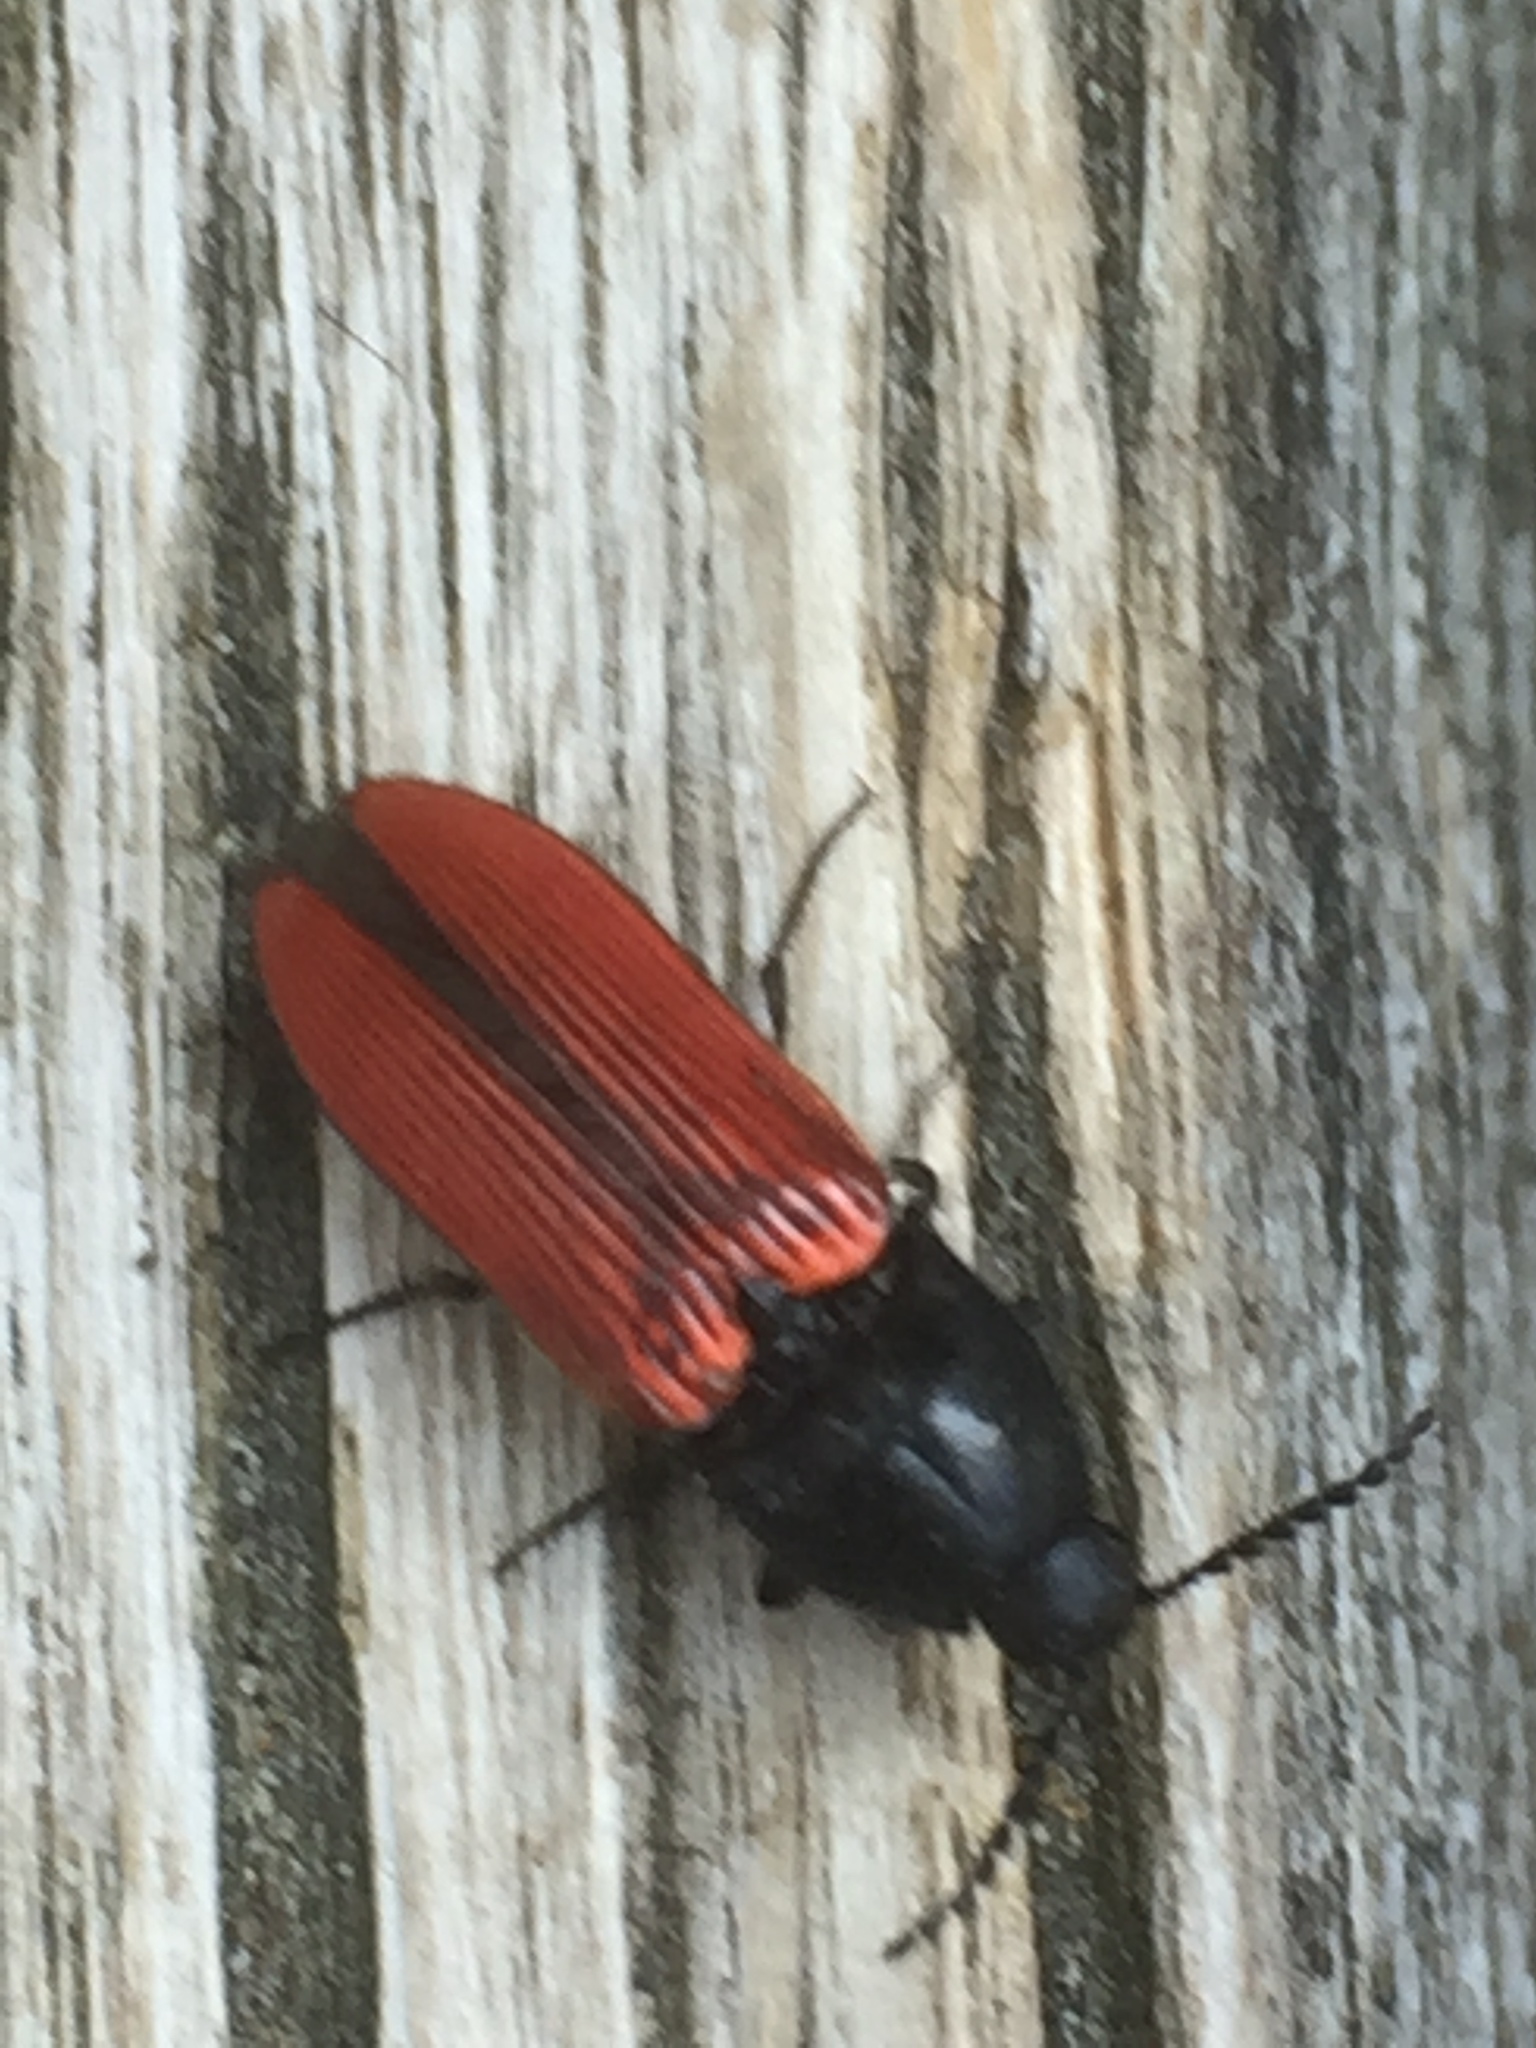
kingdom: Animalia
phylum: Arthropoda
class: Insecta
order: Coleoptera
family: Elateridae
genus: Ampedus
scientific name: Ampedus sanguineus
